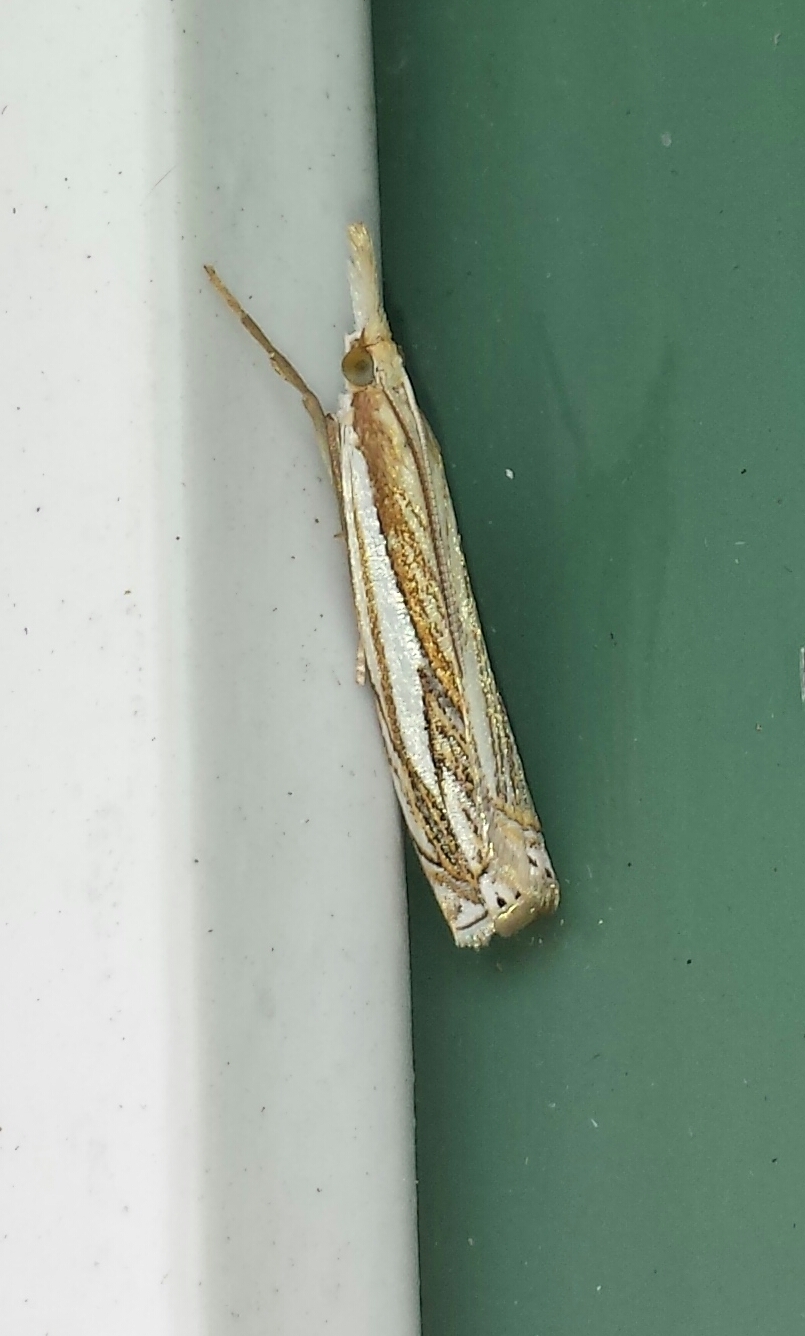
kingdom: Animalia
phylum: Arthropoda
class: Insecta
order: Lepidoptera
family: Crambidae
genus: Crambus
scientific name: Crambus saltuellus
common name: Pasture grass-veneer
